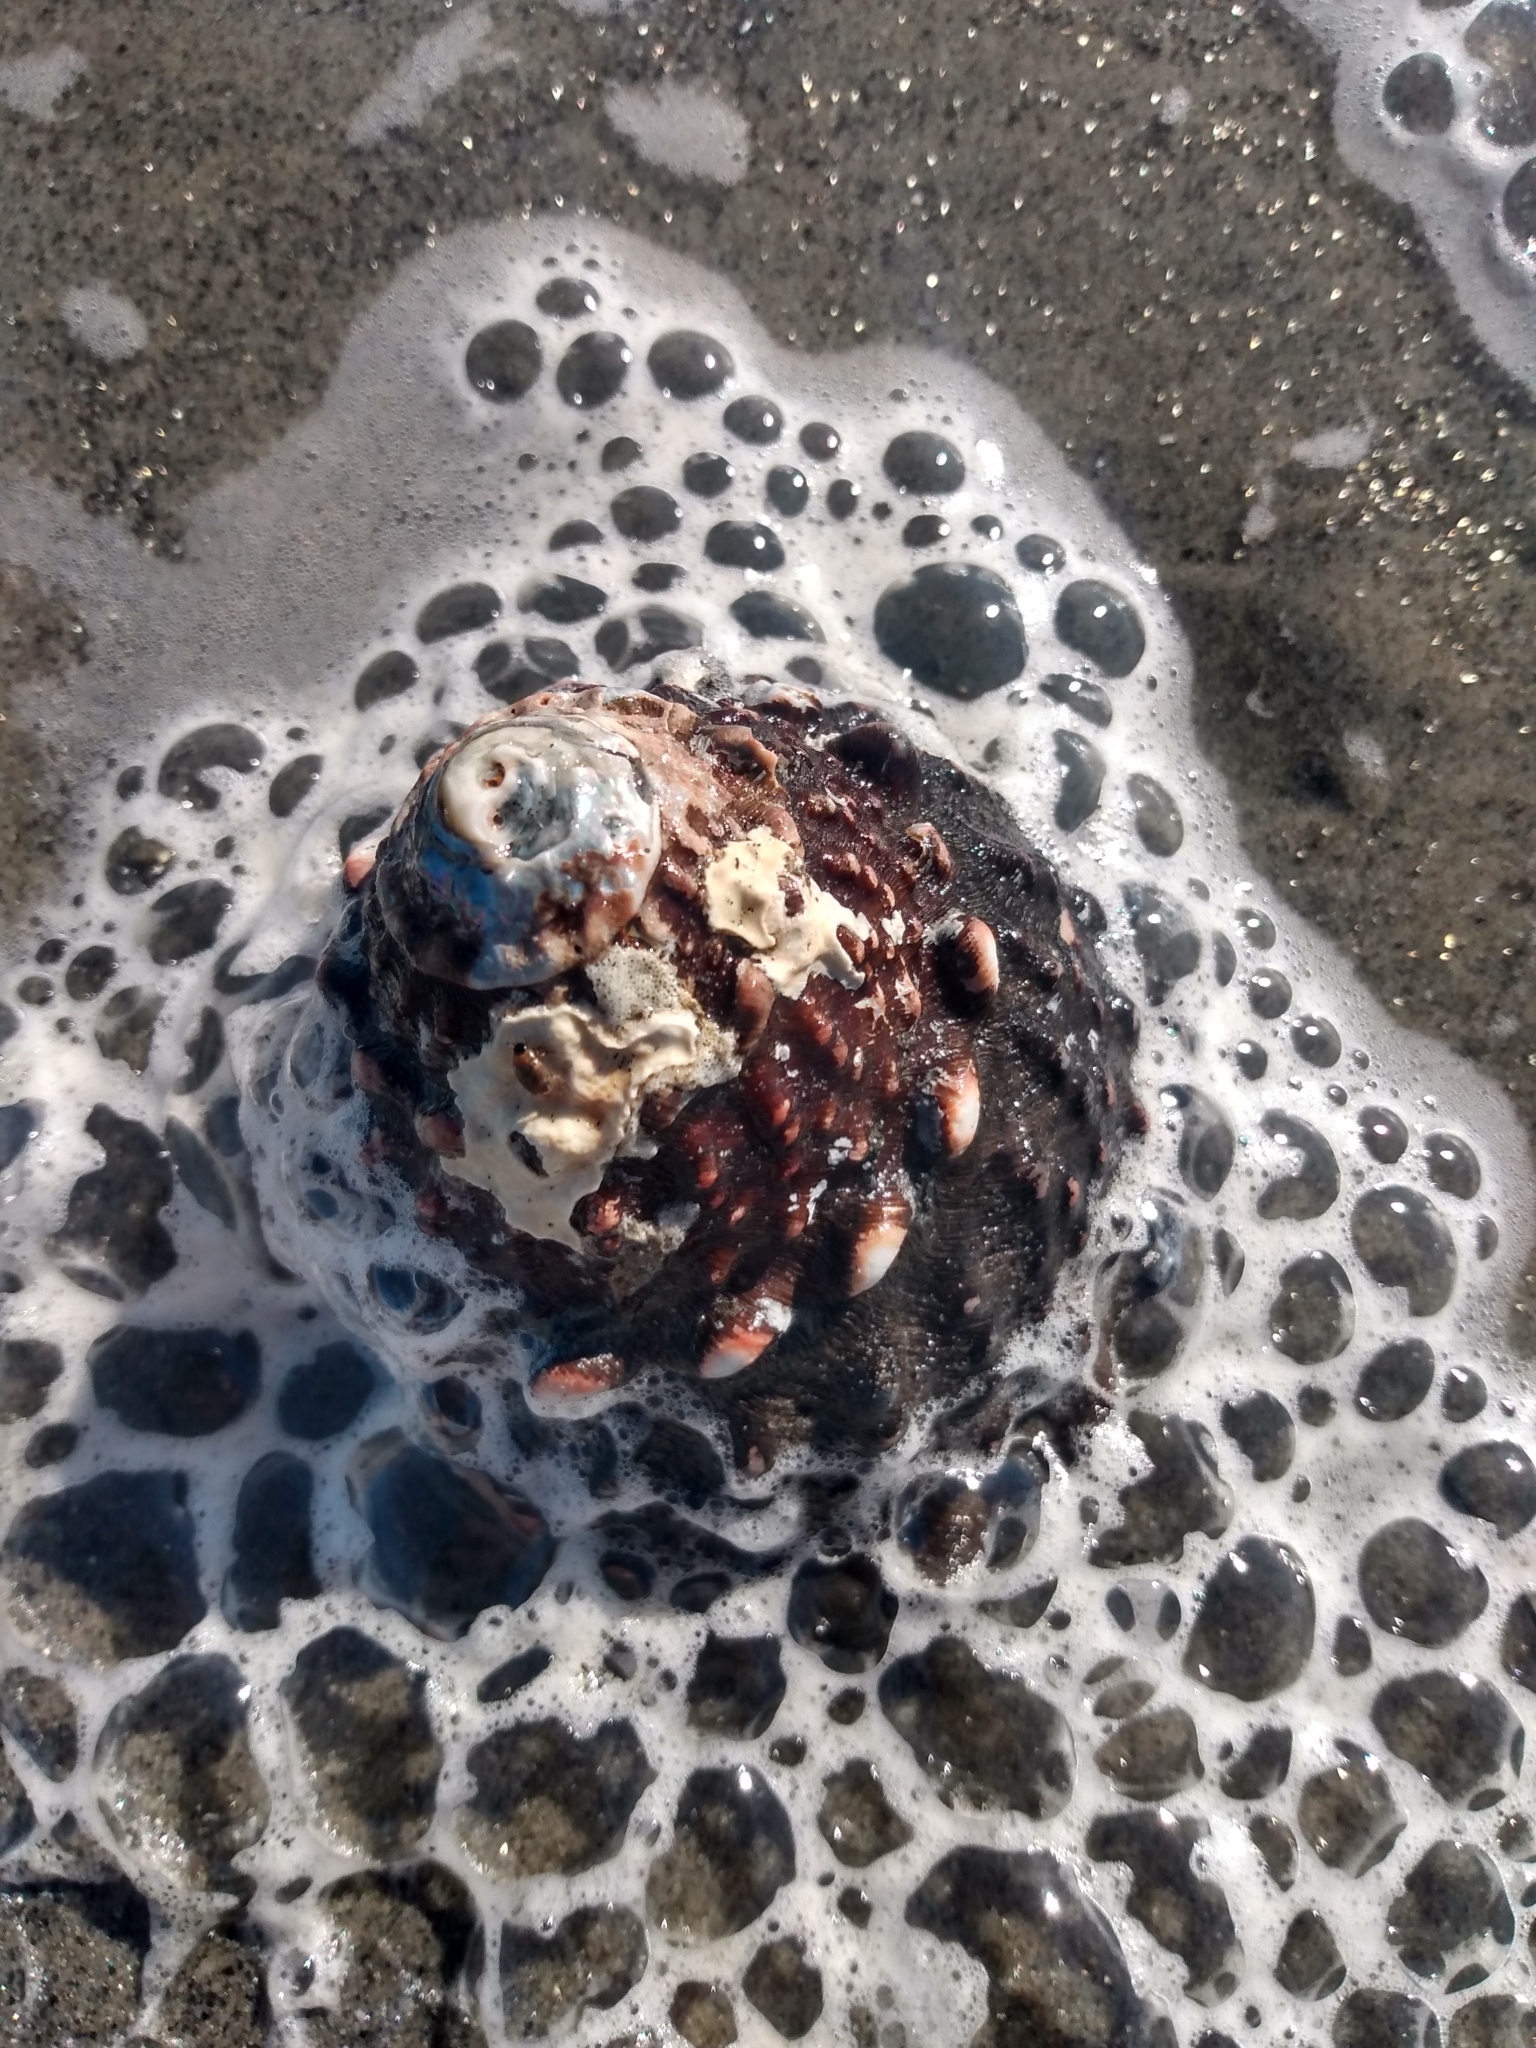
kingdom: Animalia
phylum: Mollusca
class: Gastropoda
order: Trochida
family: Turbinidae
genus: Megastraea
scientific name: Megastraea undosa
